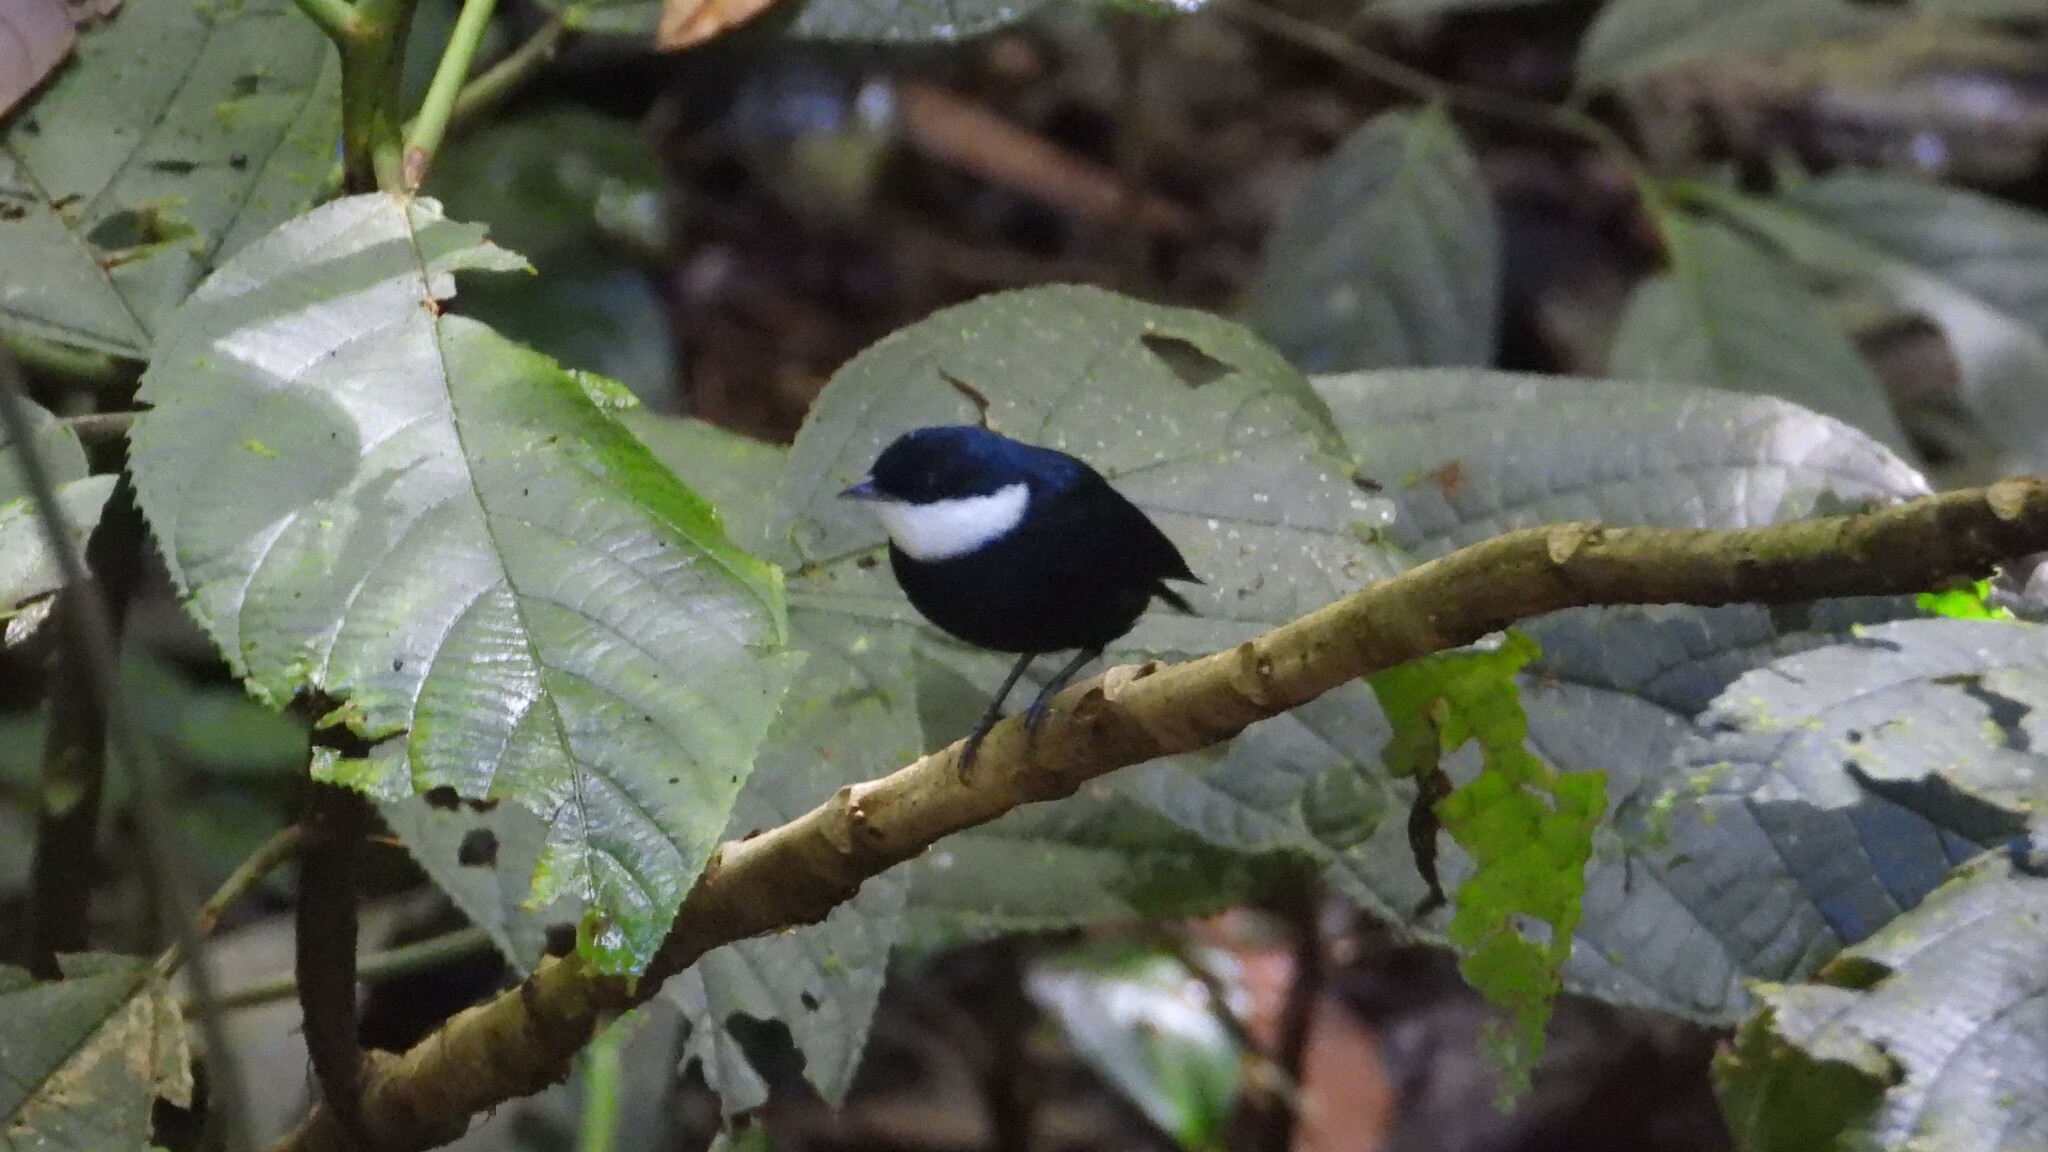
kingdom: Animalia
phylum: Chordata
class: Aves
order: Passeriformes
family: Pipridae
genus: Corapipo
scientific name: Corapipo altera
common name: White-ruffed manakin
